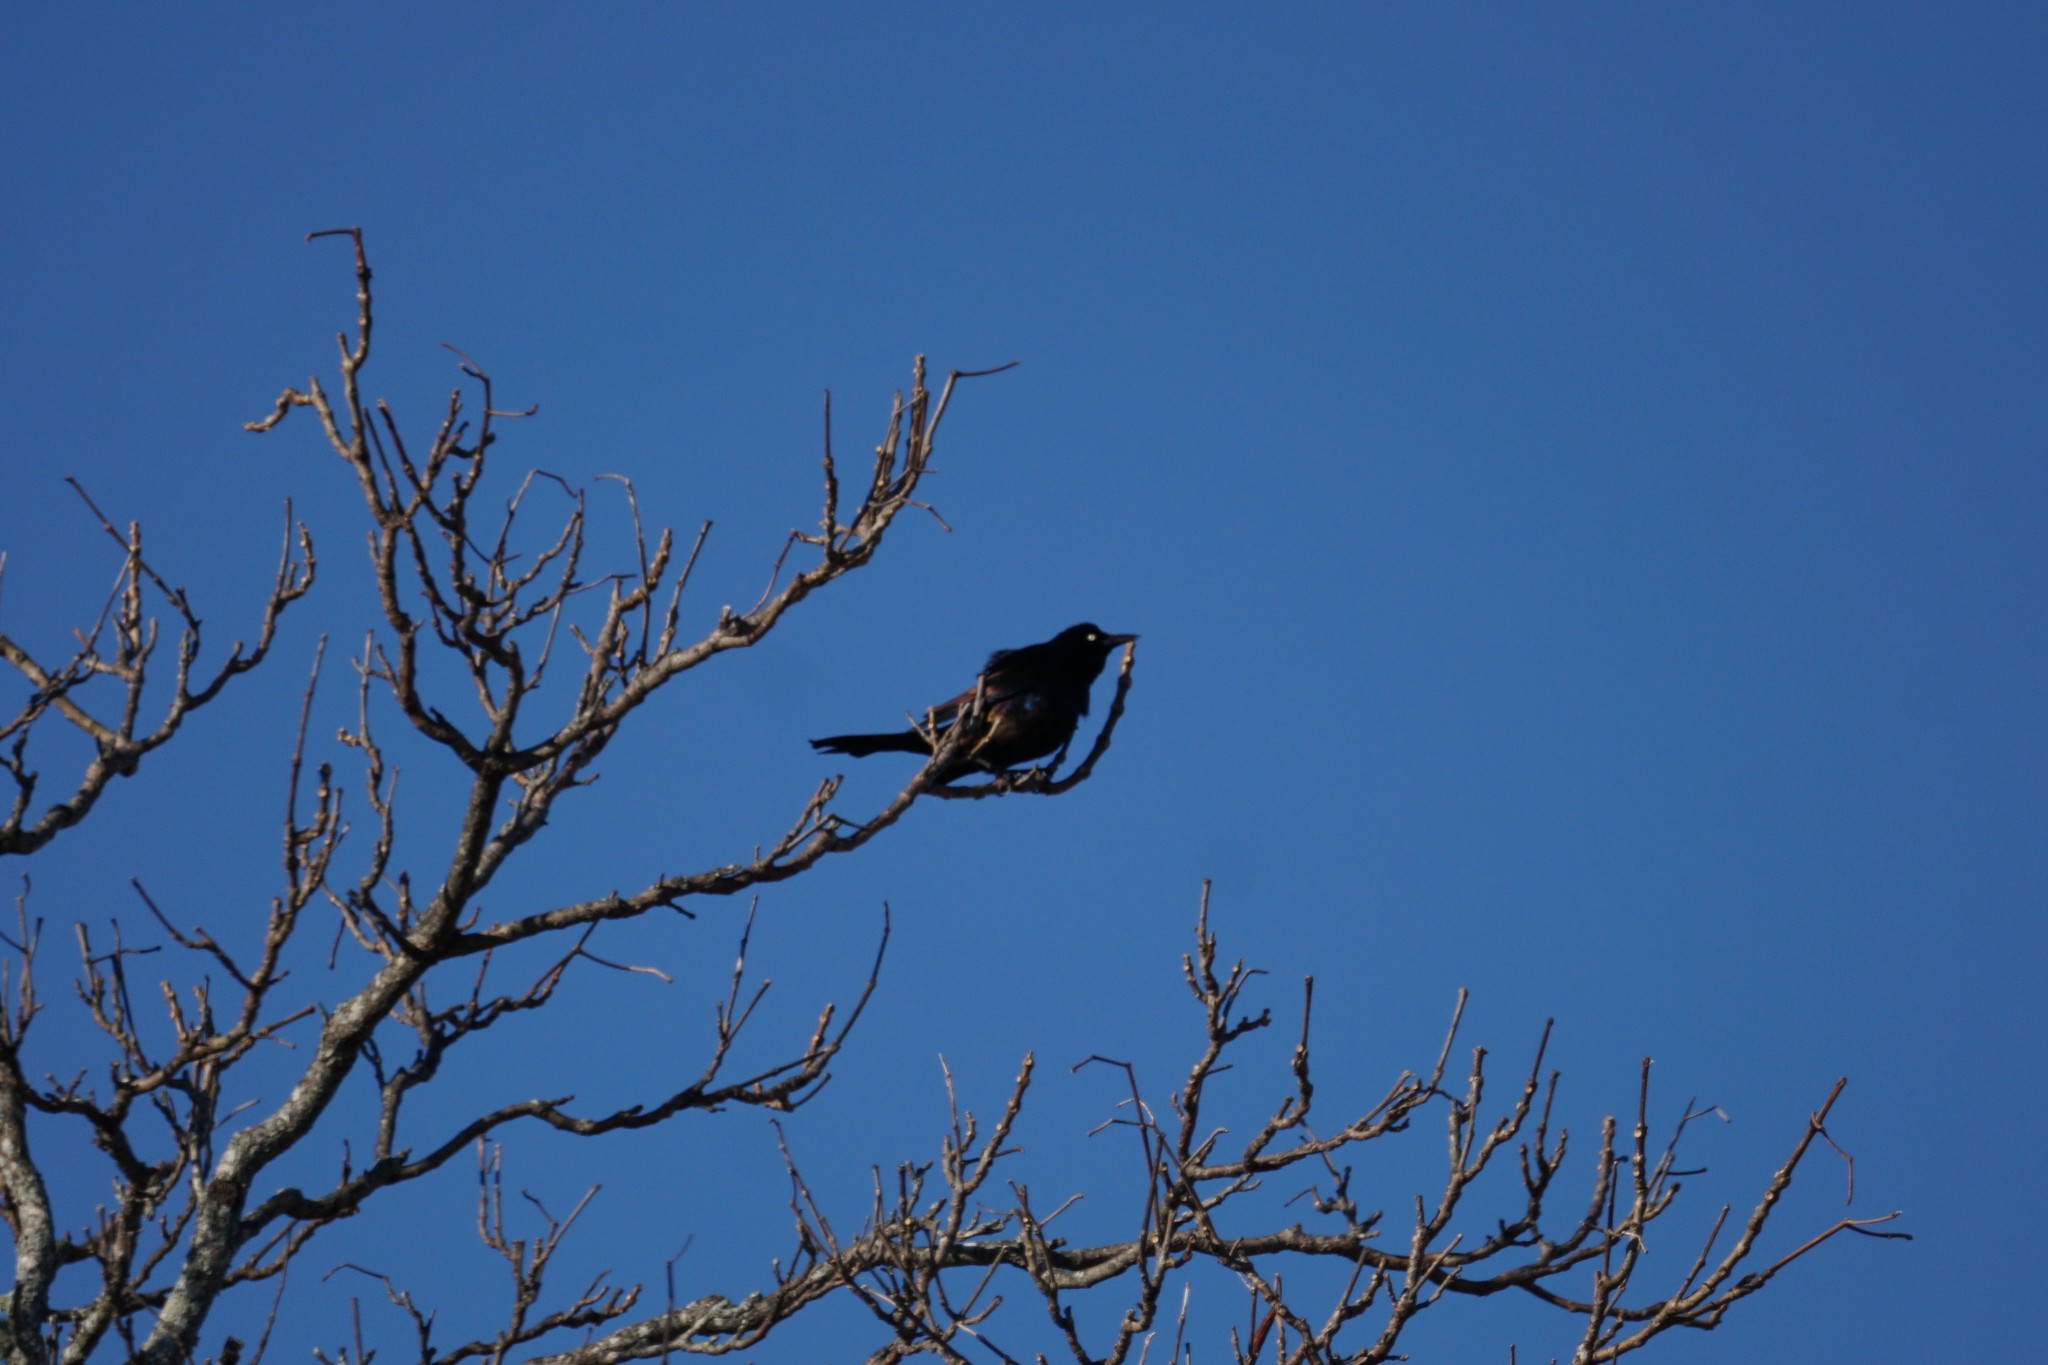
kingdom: Animalia
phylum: Chordata
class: Aves
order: Passeriformes
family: Icteridae
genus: Quiscalus
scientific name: Quiscalus quiscula
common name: Common grackle
